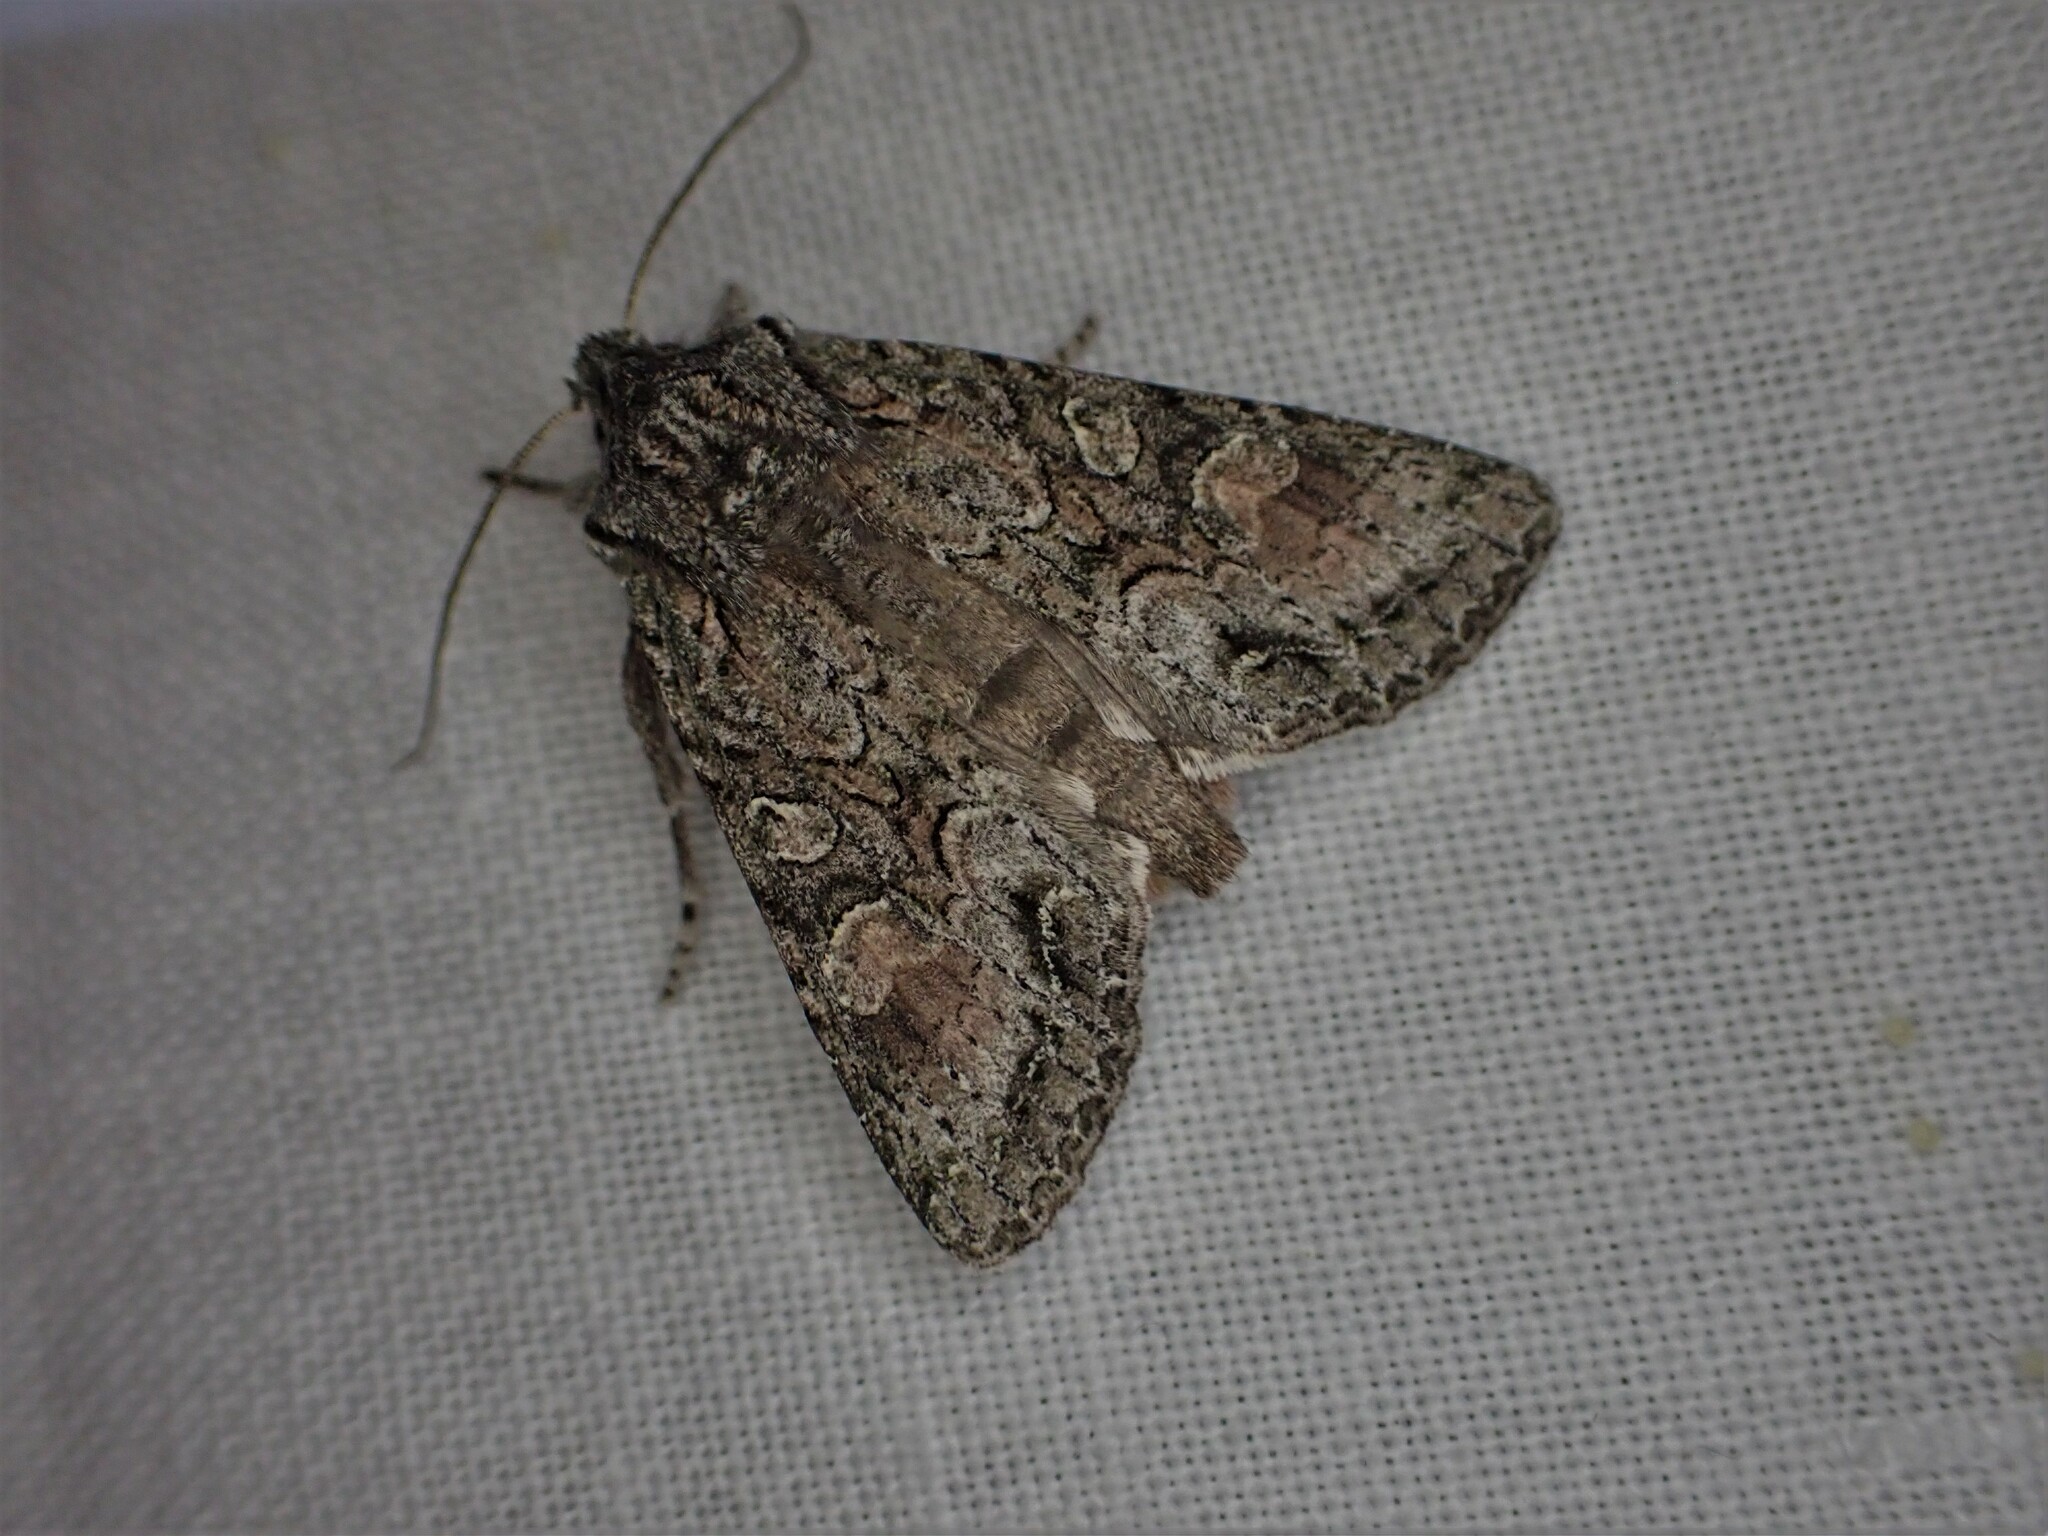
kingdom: Animalia
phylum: Arthropoda
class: Insecta
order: Lepidoptera
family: Noctuidae
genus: Ichneutica
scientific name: Ichneutica mutans
